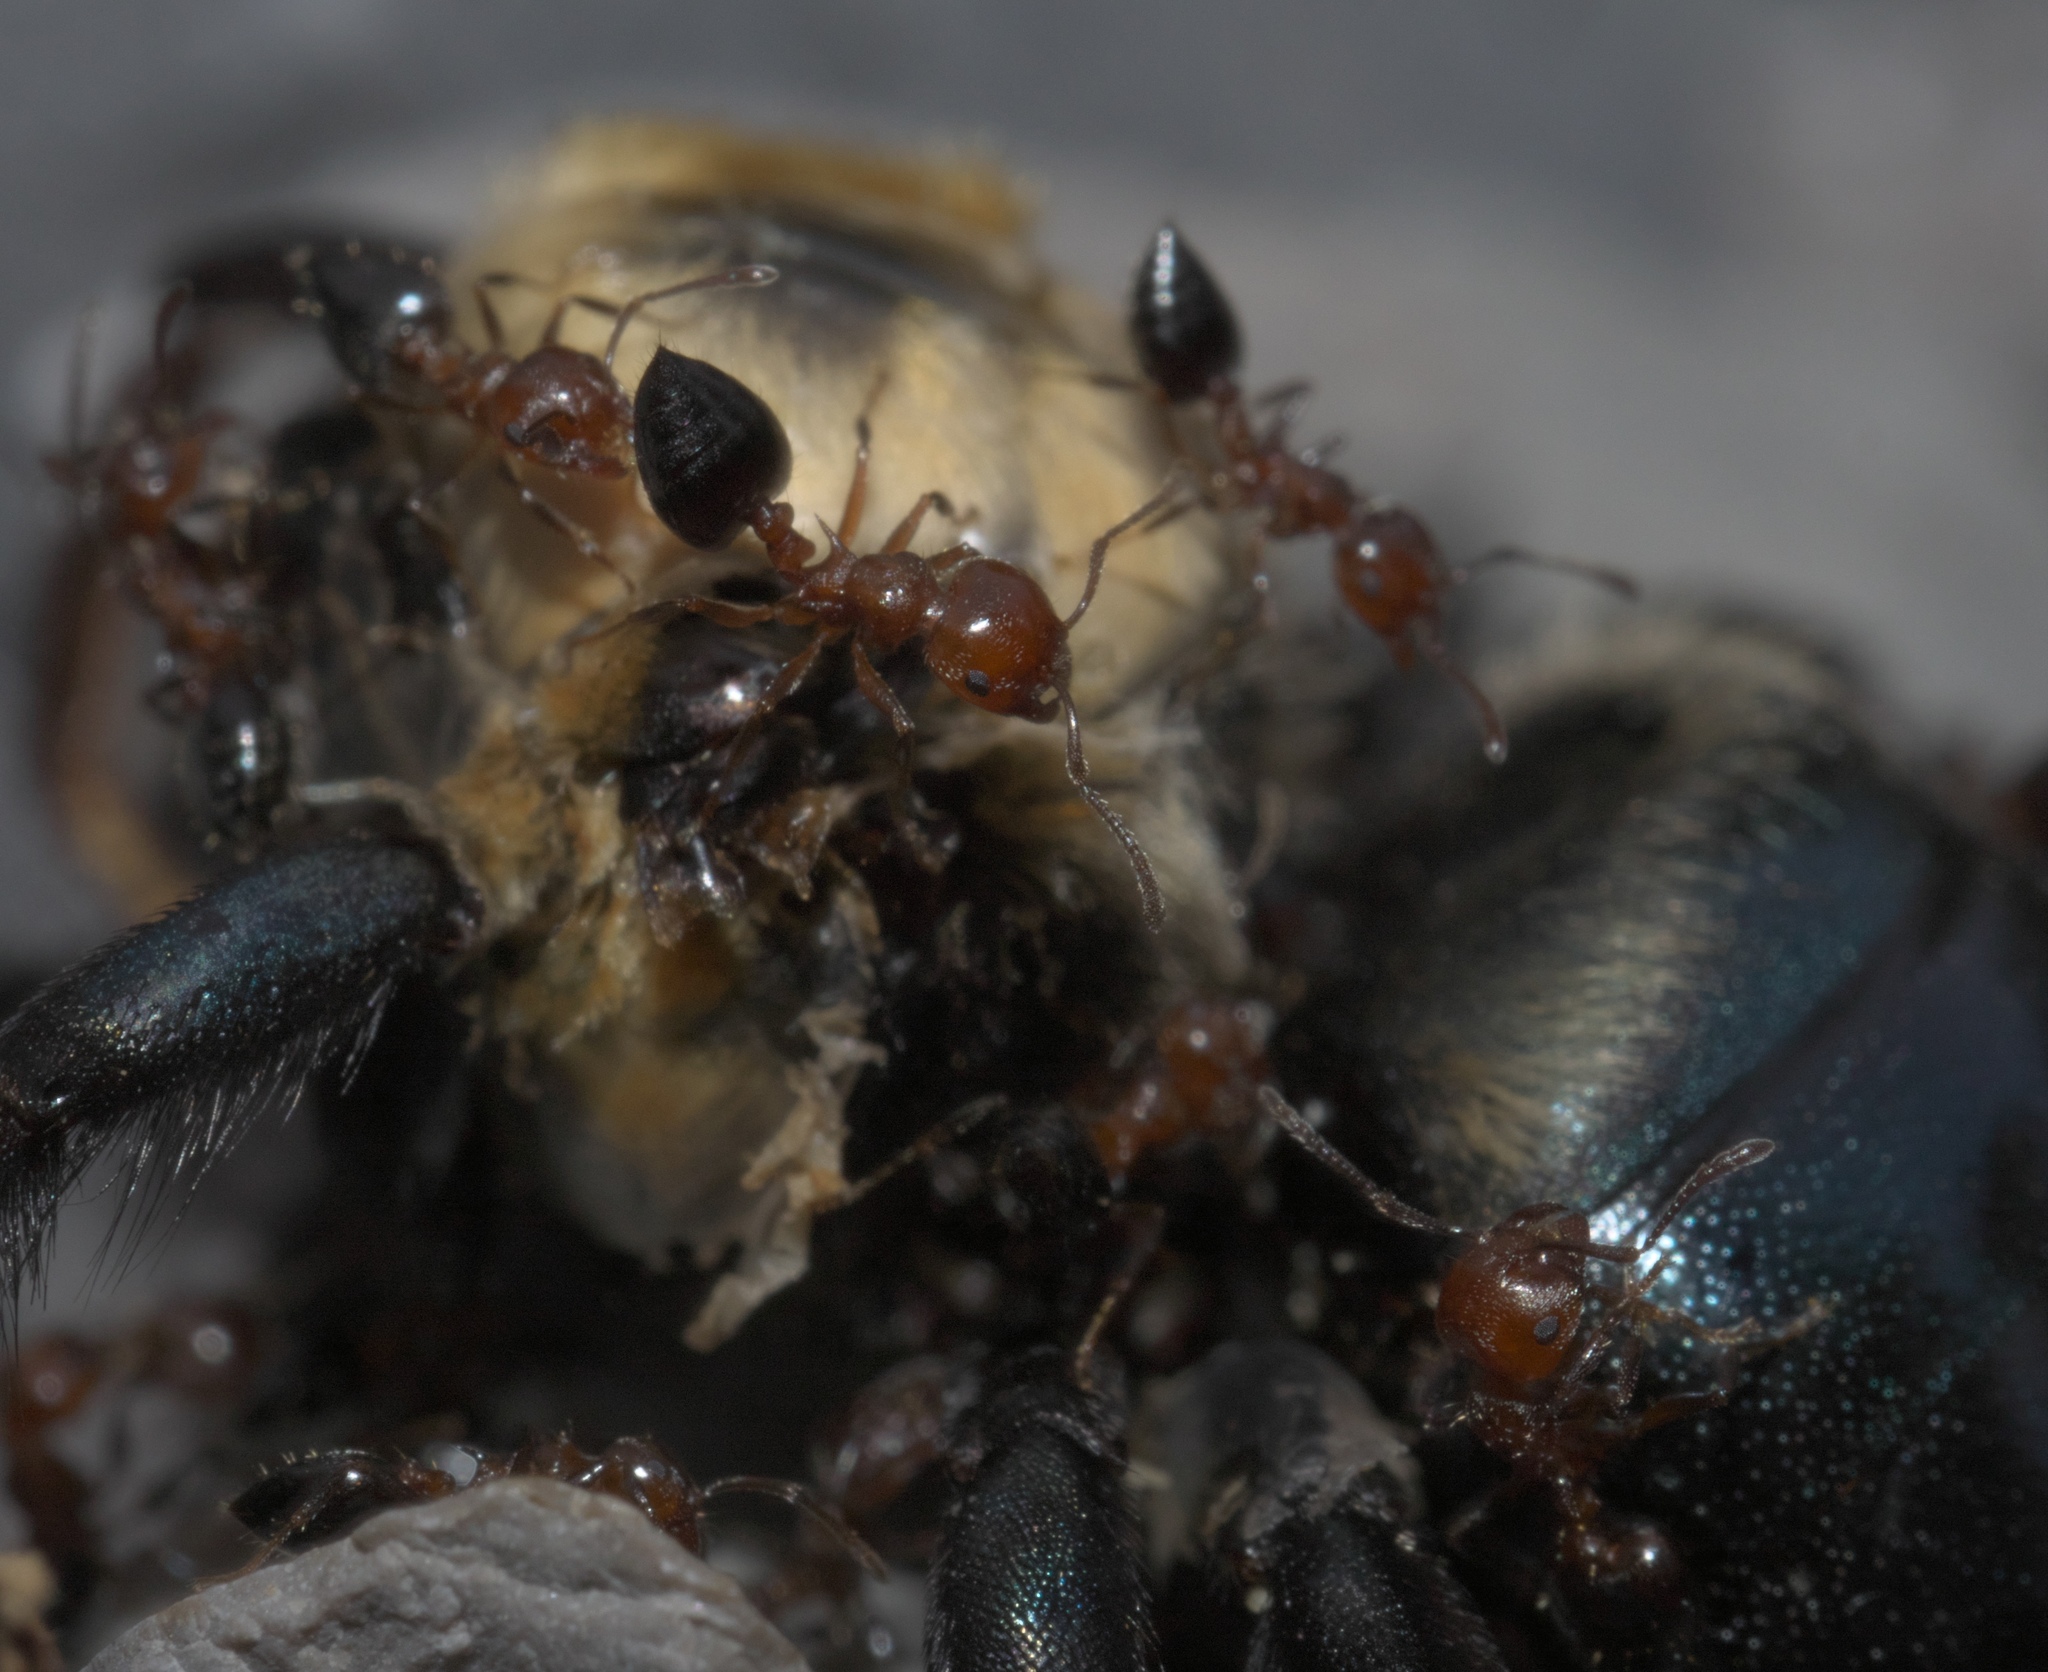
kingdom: Animalia
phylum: Arthropoda
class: Insecta
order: Hymenoptera
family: Formicidae
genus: Crematogaster
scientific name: Crematogaster laeviuscula
